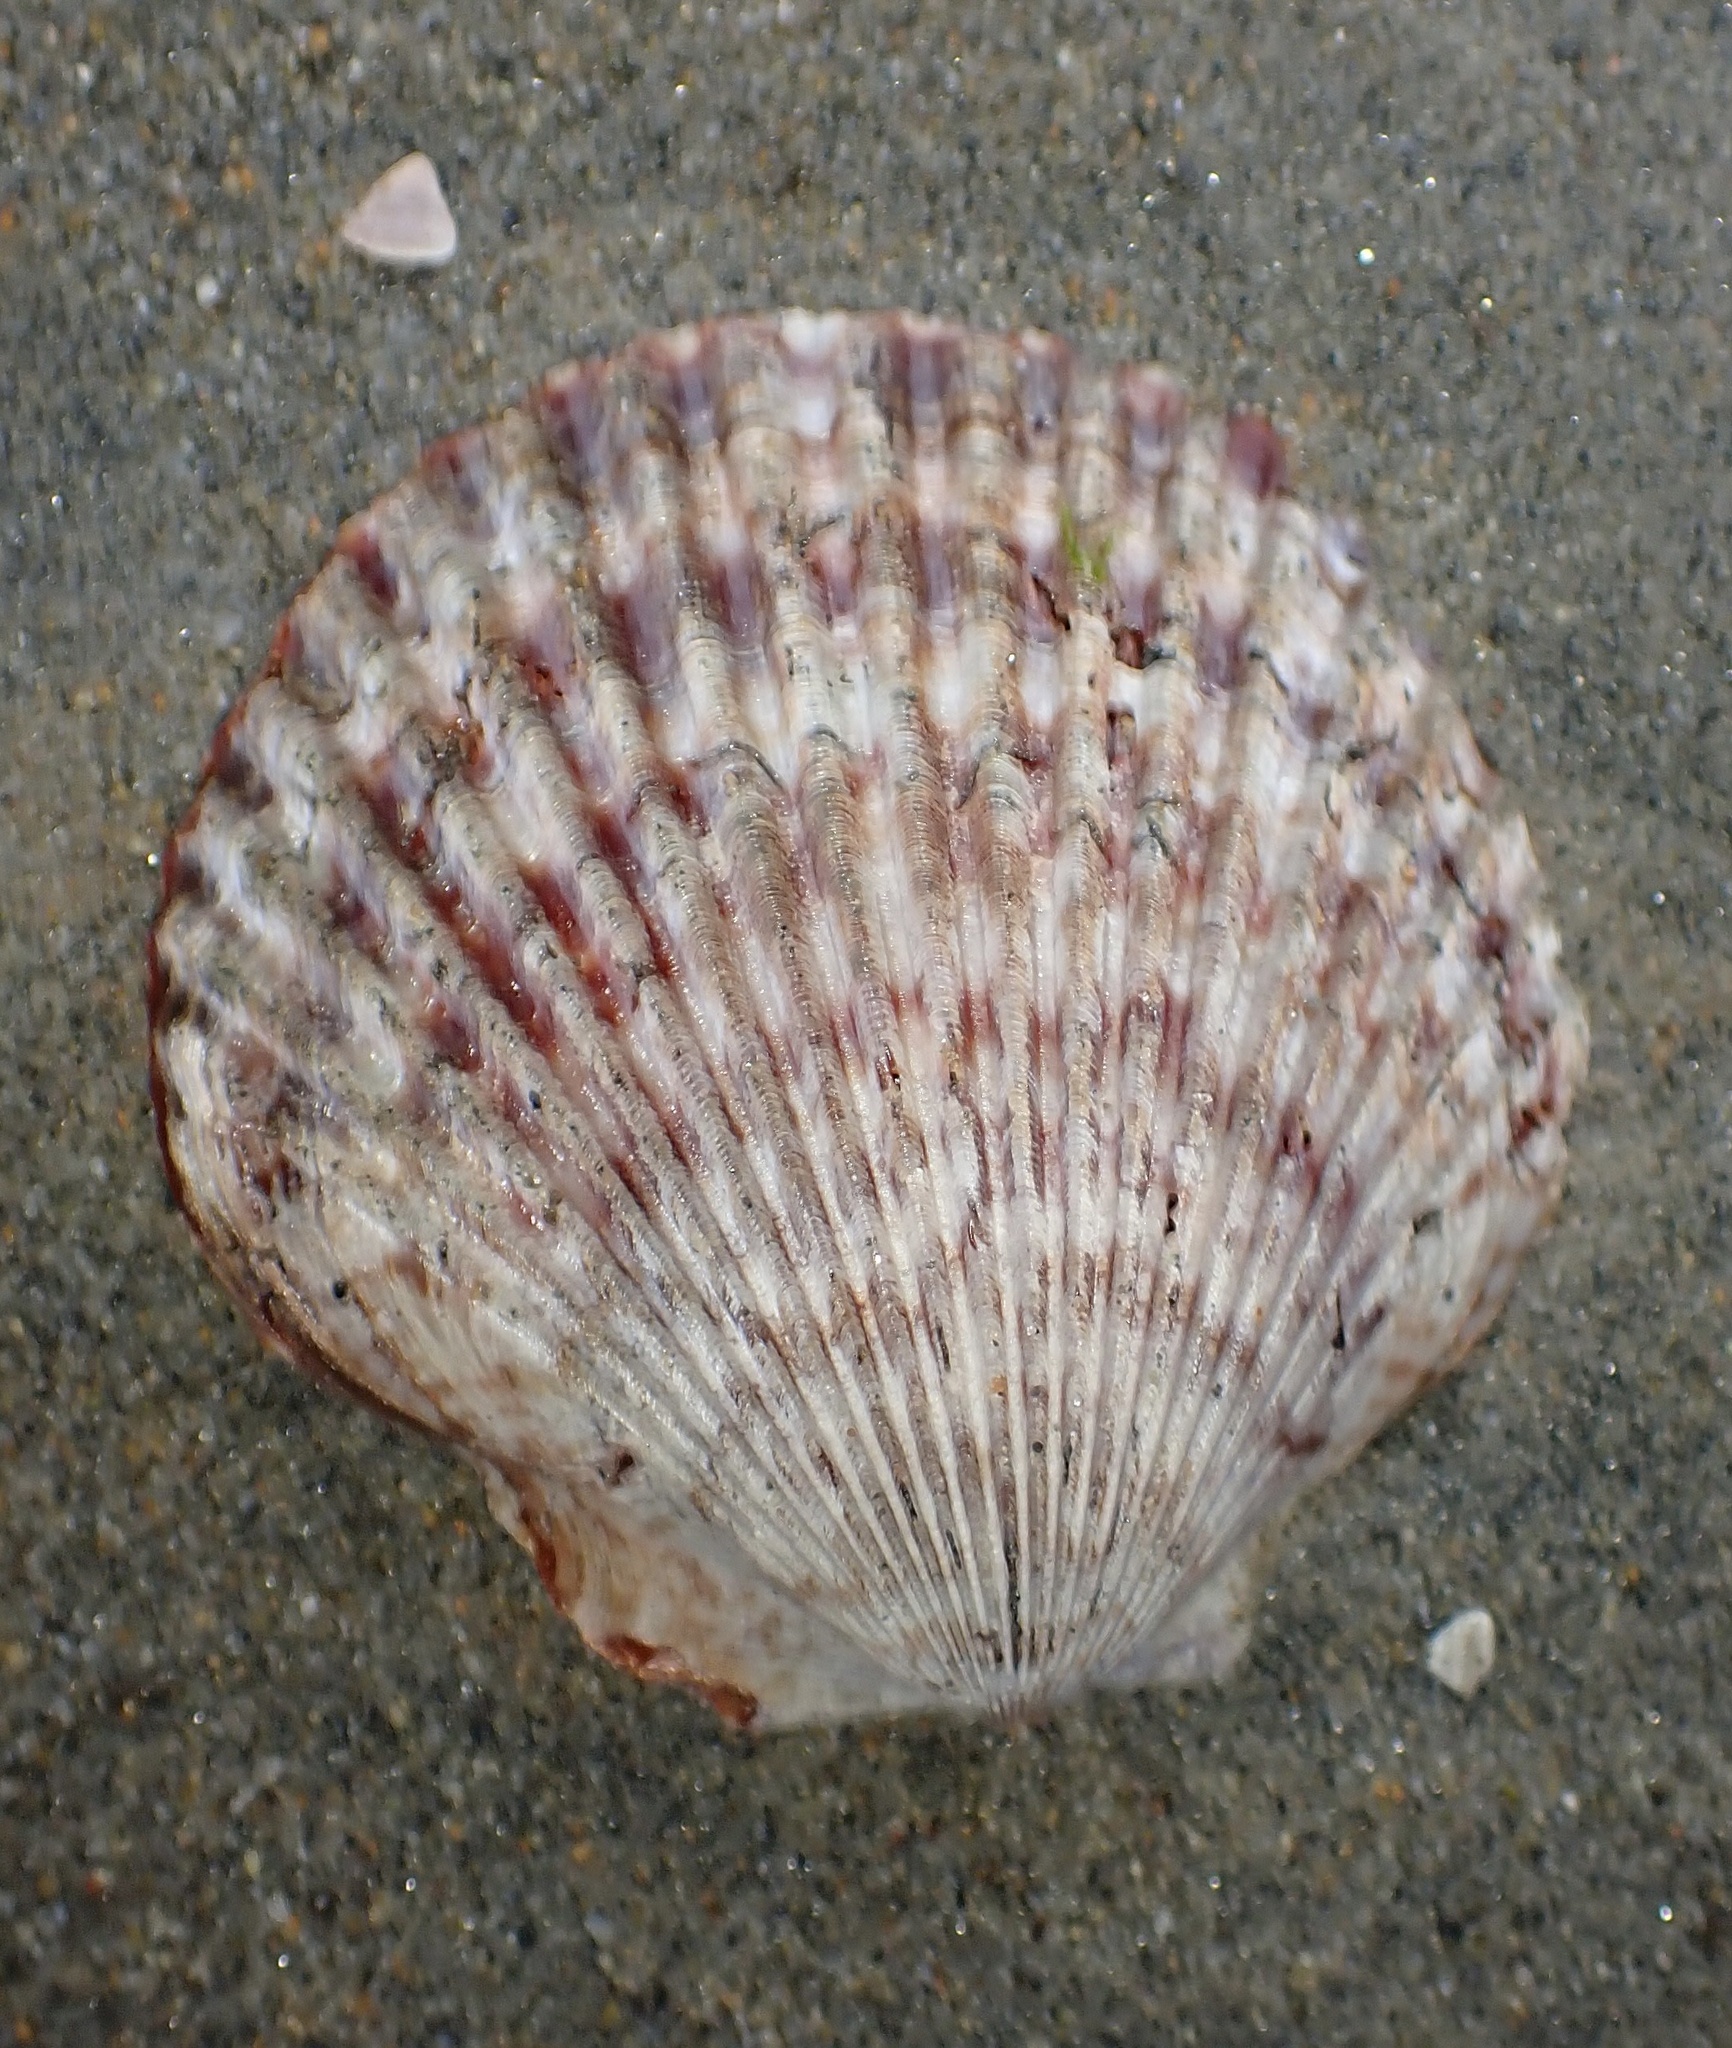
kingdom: Animalia
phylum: Mollusca
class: Bivalvia
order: Pectinida
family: Pectinidae
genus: Argopecten
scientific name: Argopecten ventricosus
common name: Catarina scallop
